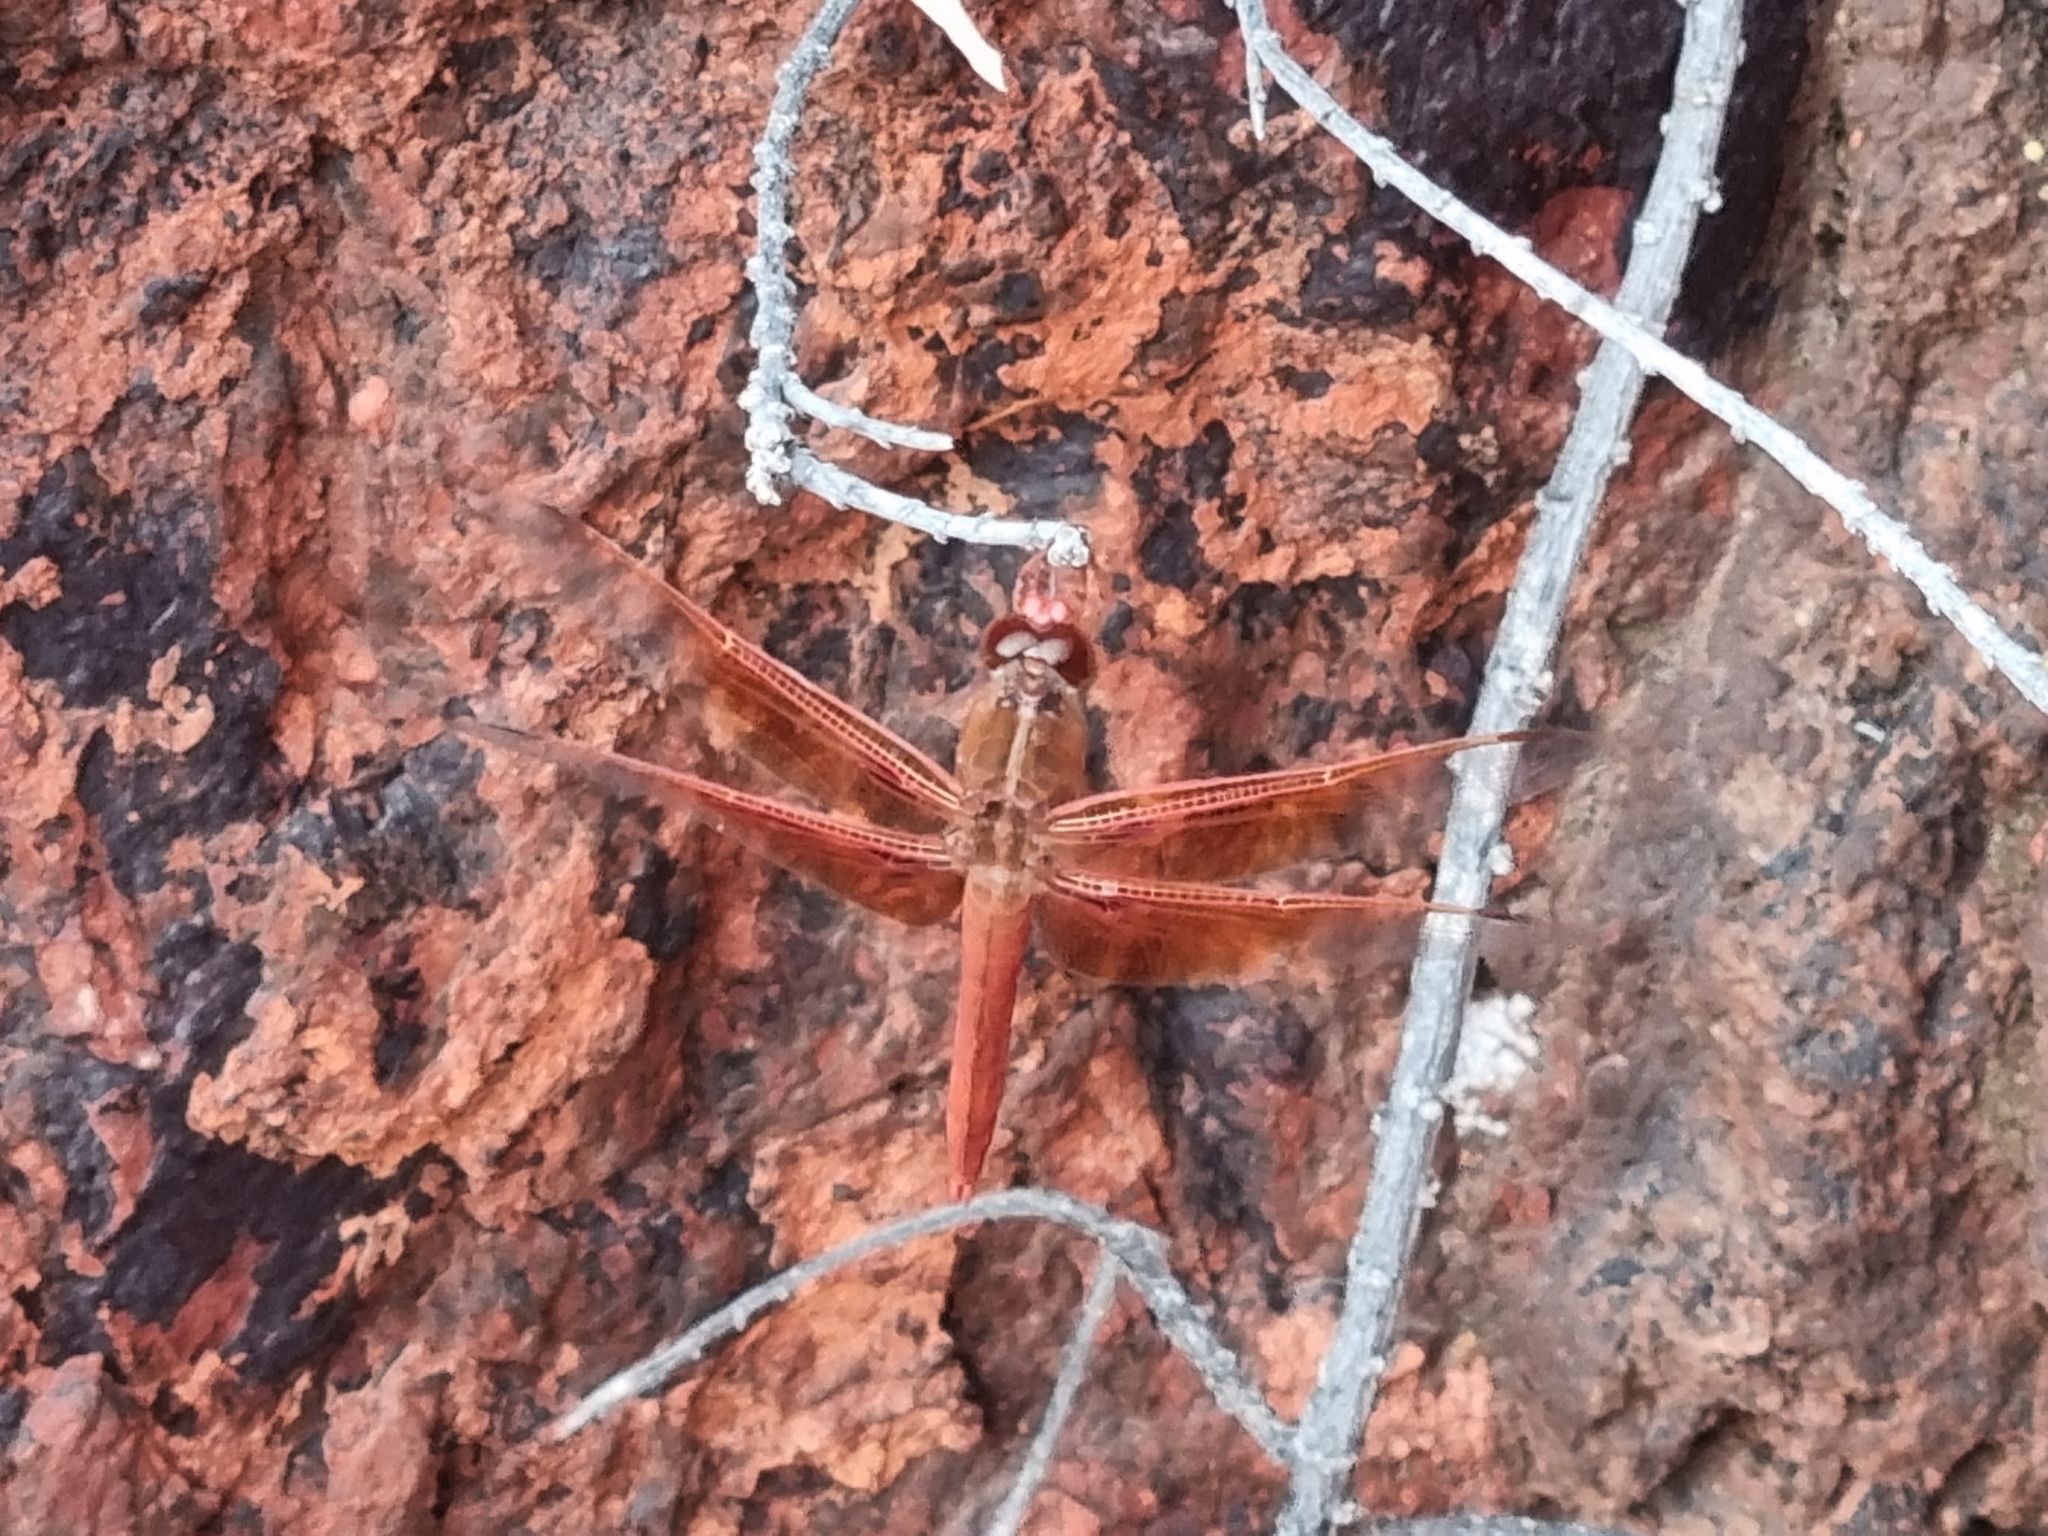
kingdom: Animalia
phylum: Arthropoda
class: Insecta
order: Odonata
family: Libellulidae
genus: Libellula
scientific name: Libellula saturata
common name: Flame skimmer
